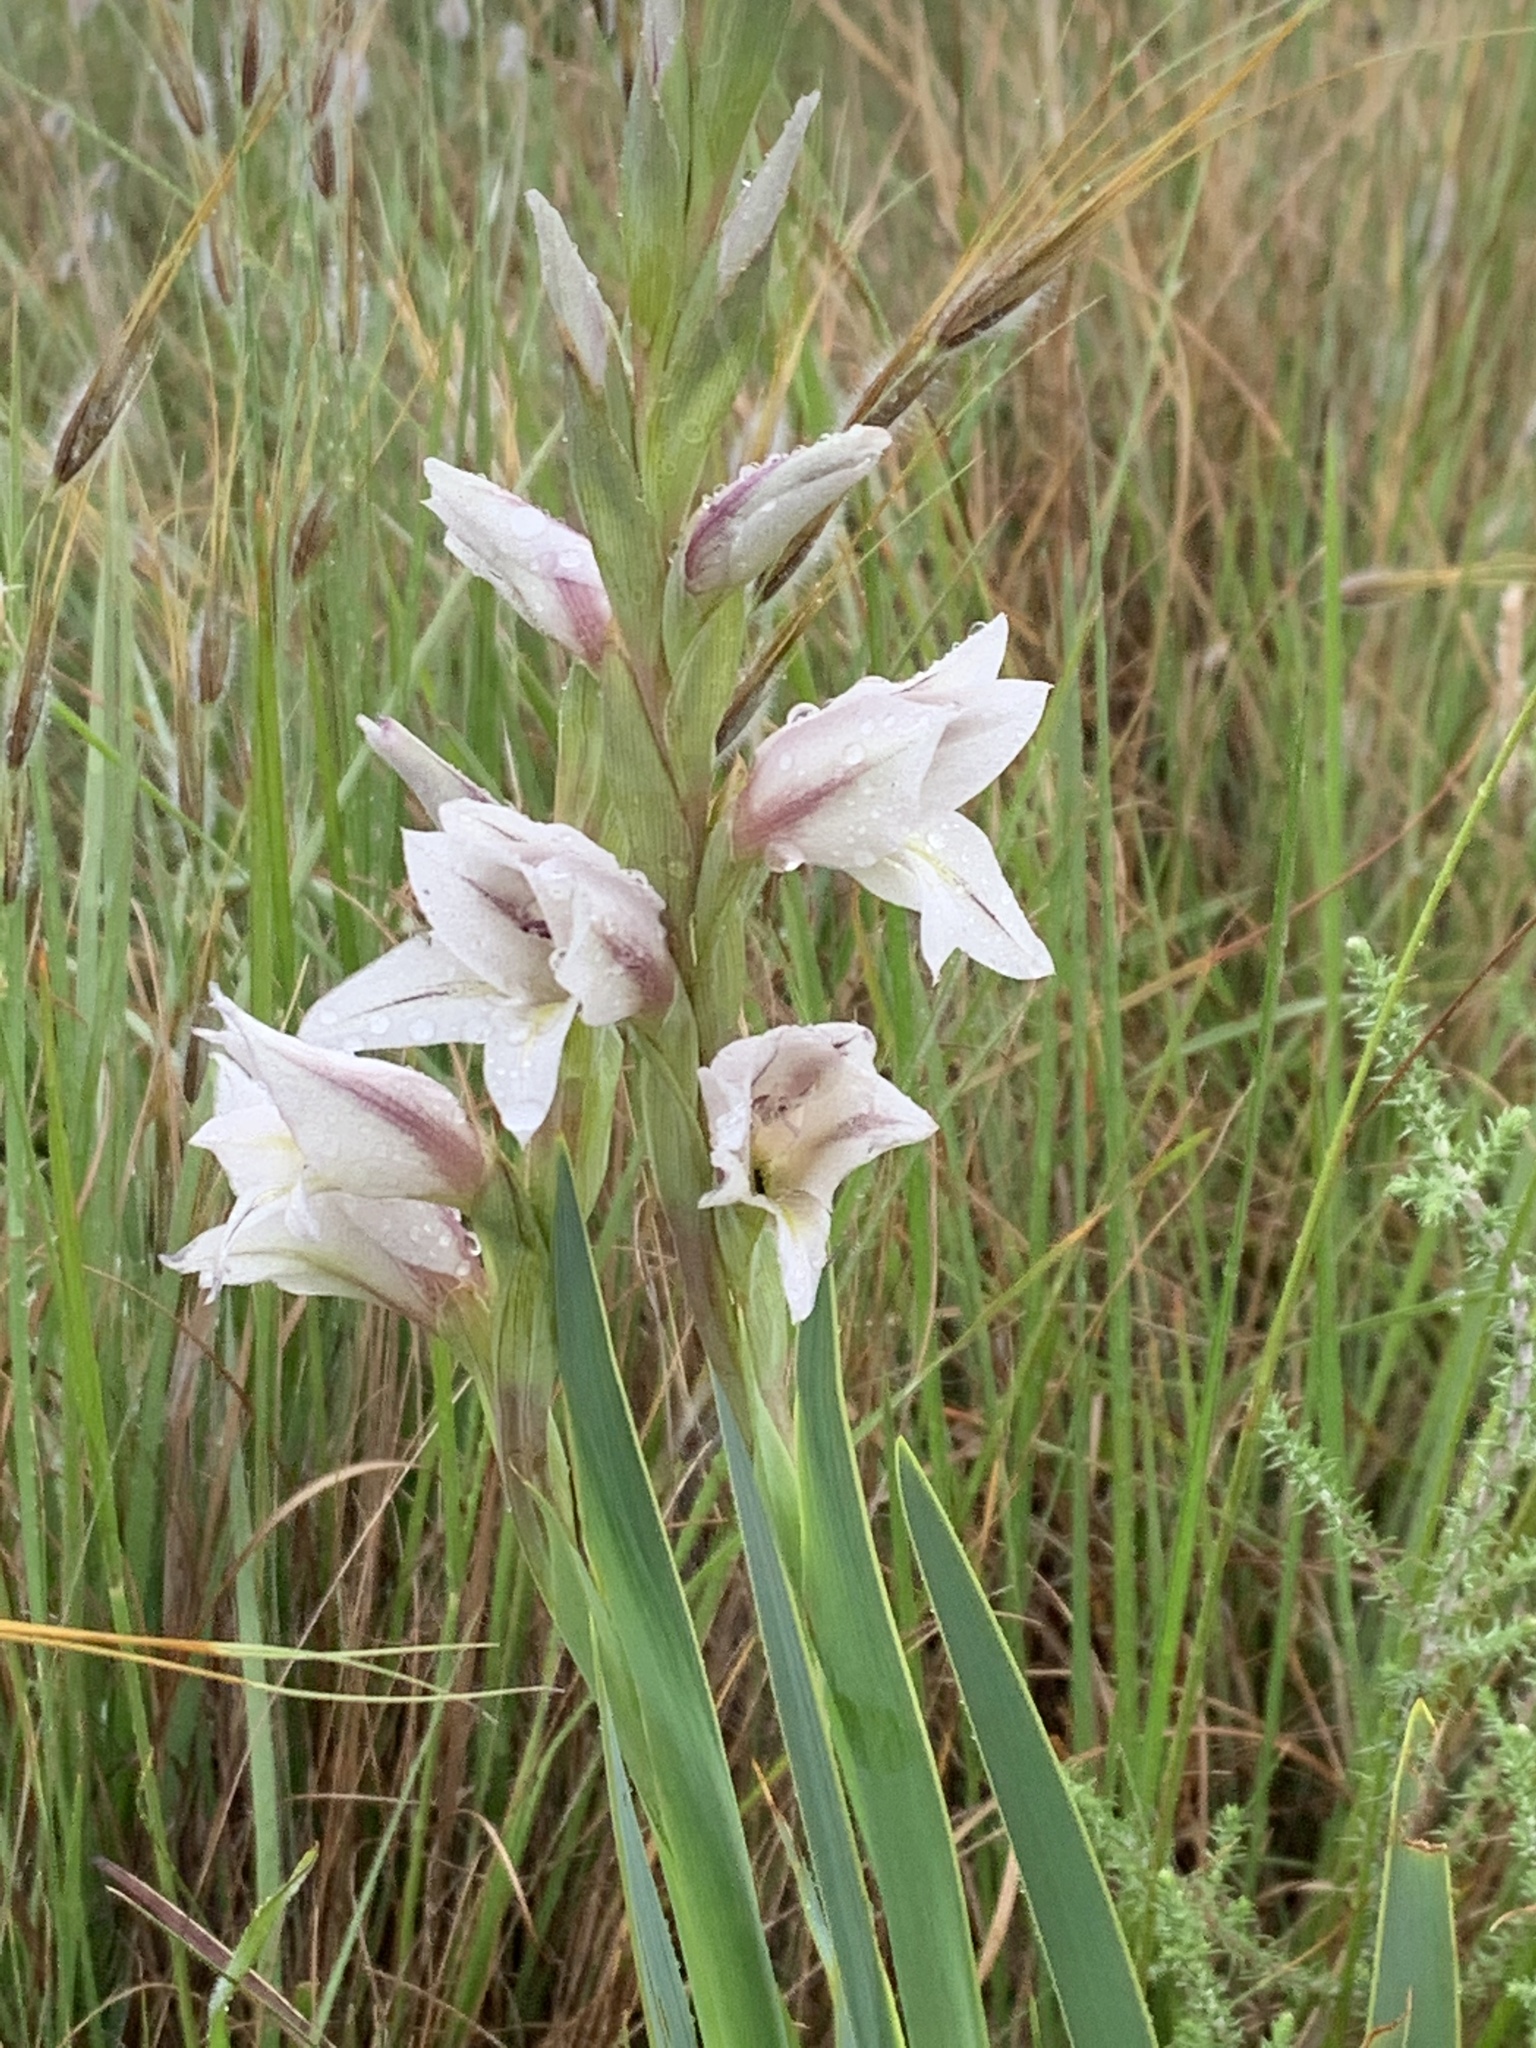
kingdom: Plantae
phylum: Tracheophyta
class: Liliopsida
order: Asparagales
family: Iridaceae
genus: Gladiolus
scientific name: Gladiolus elliotii
